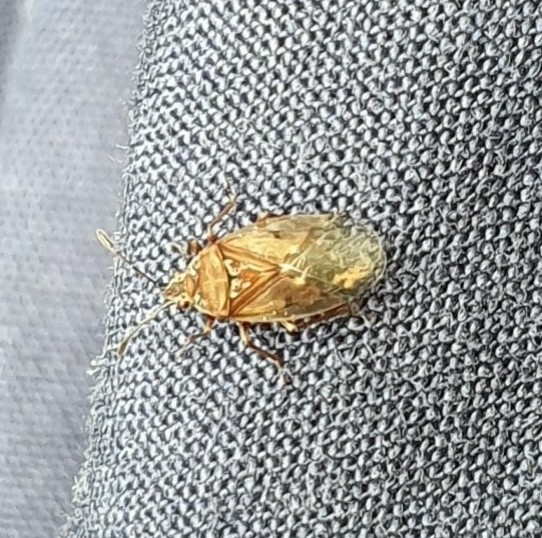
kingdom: Animalia
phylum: Arthropoda
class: Insecta
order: Hemiptera
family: Lygaeidae
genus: Kleidocerys
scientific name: Kleidocerys resedae
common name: Birch catkin bug
